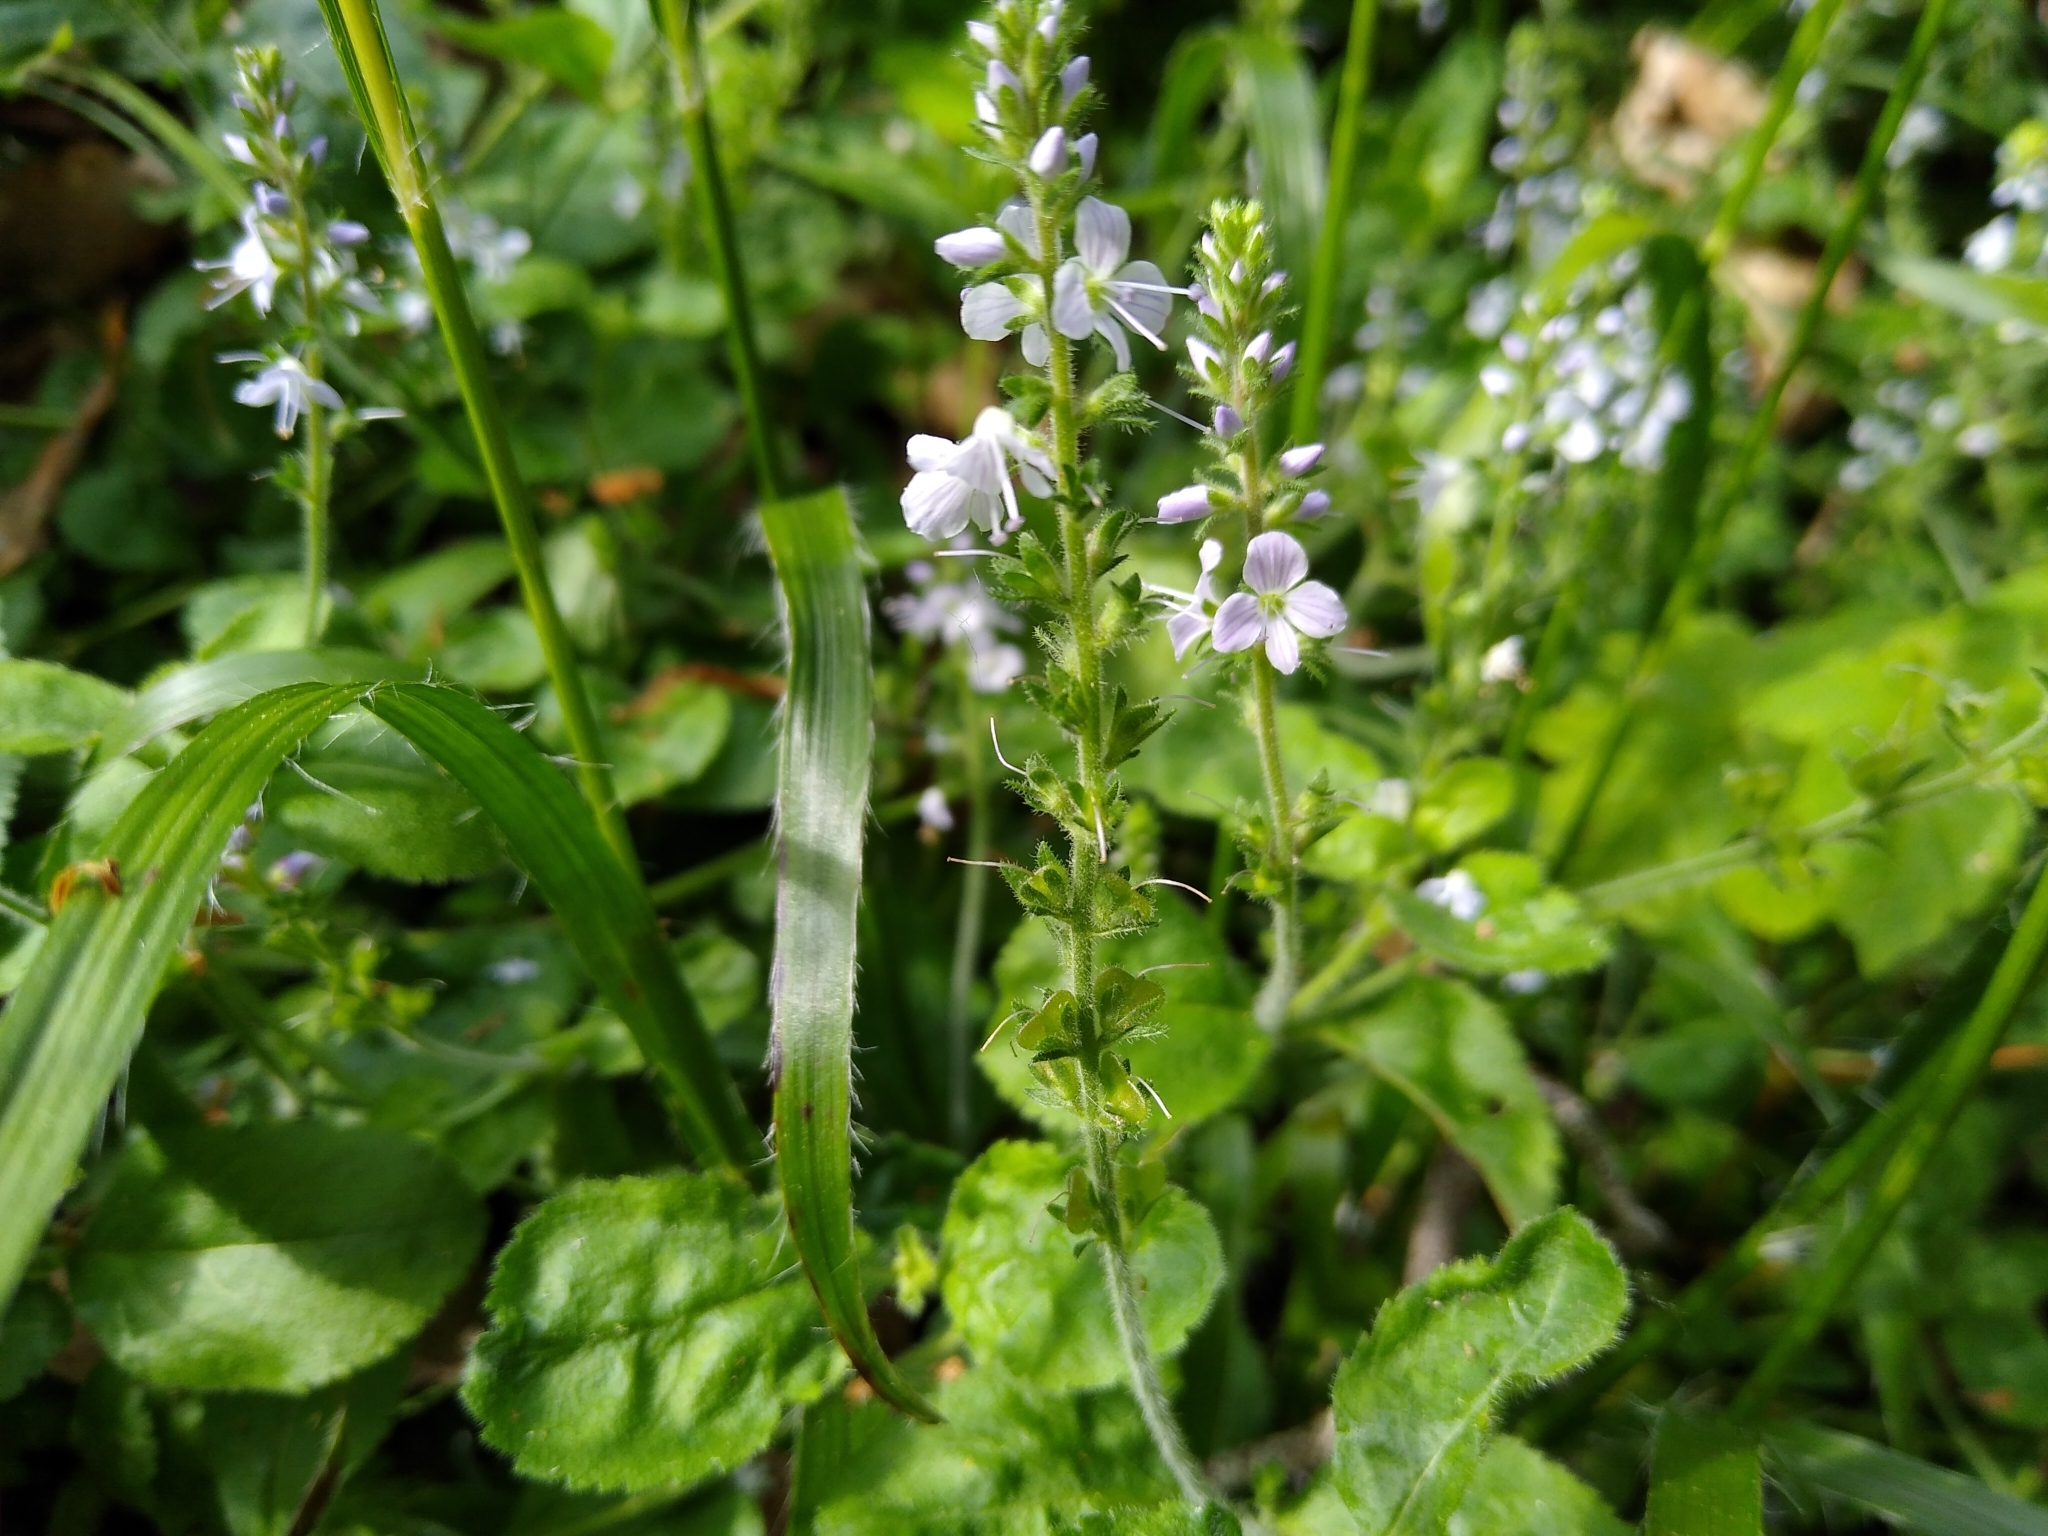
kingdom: Plantae
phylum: Tracheophyta
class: Magnoliopsida
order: Lamiales
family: Plantaginaceae
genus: Veronica
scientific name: Veronica officinalis
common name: Common speedwell
